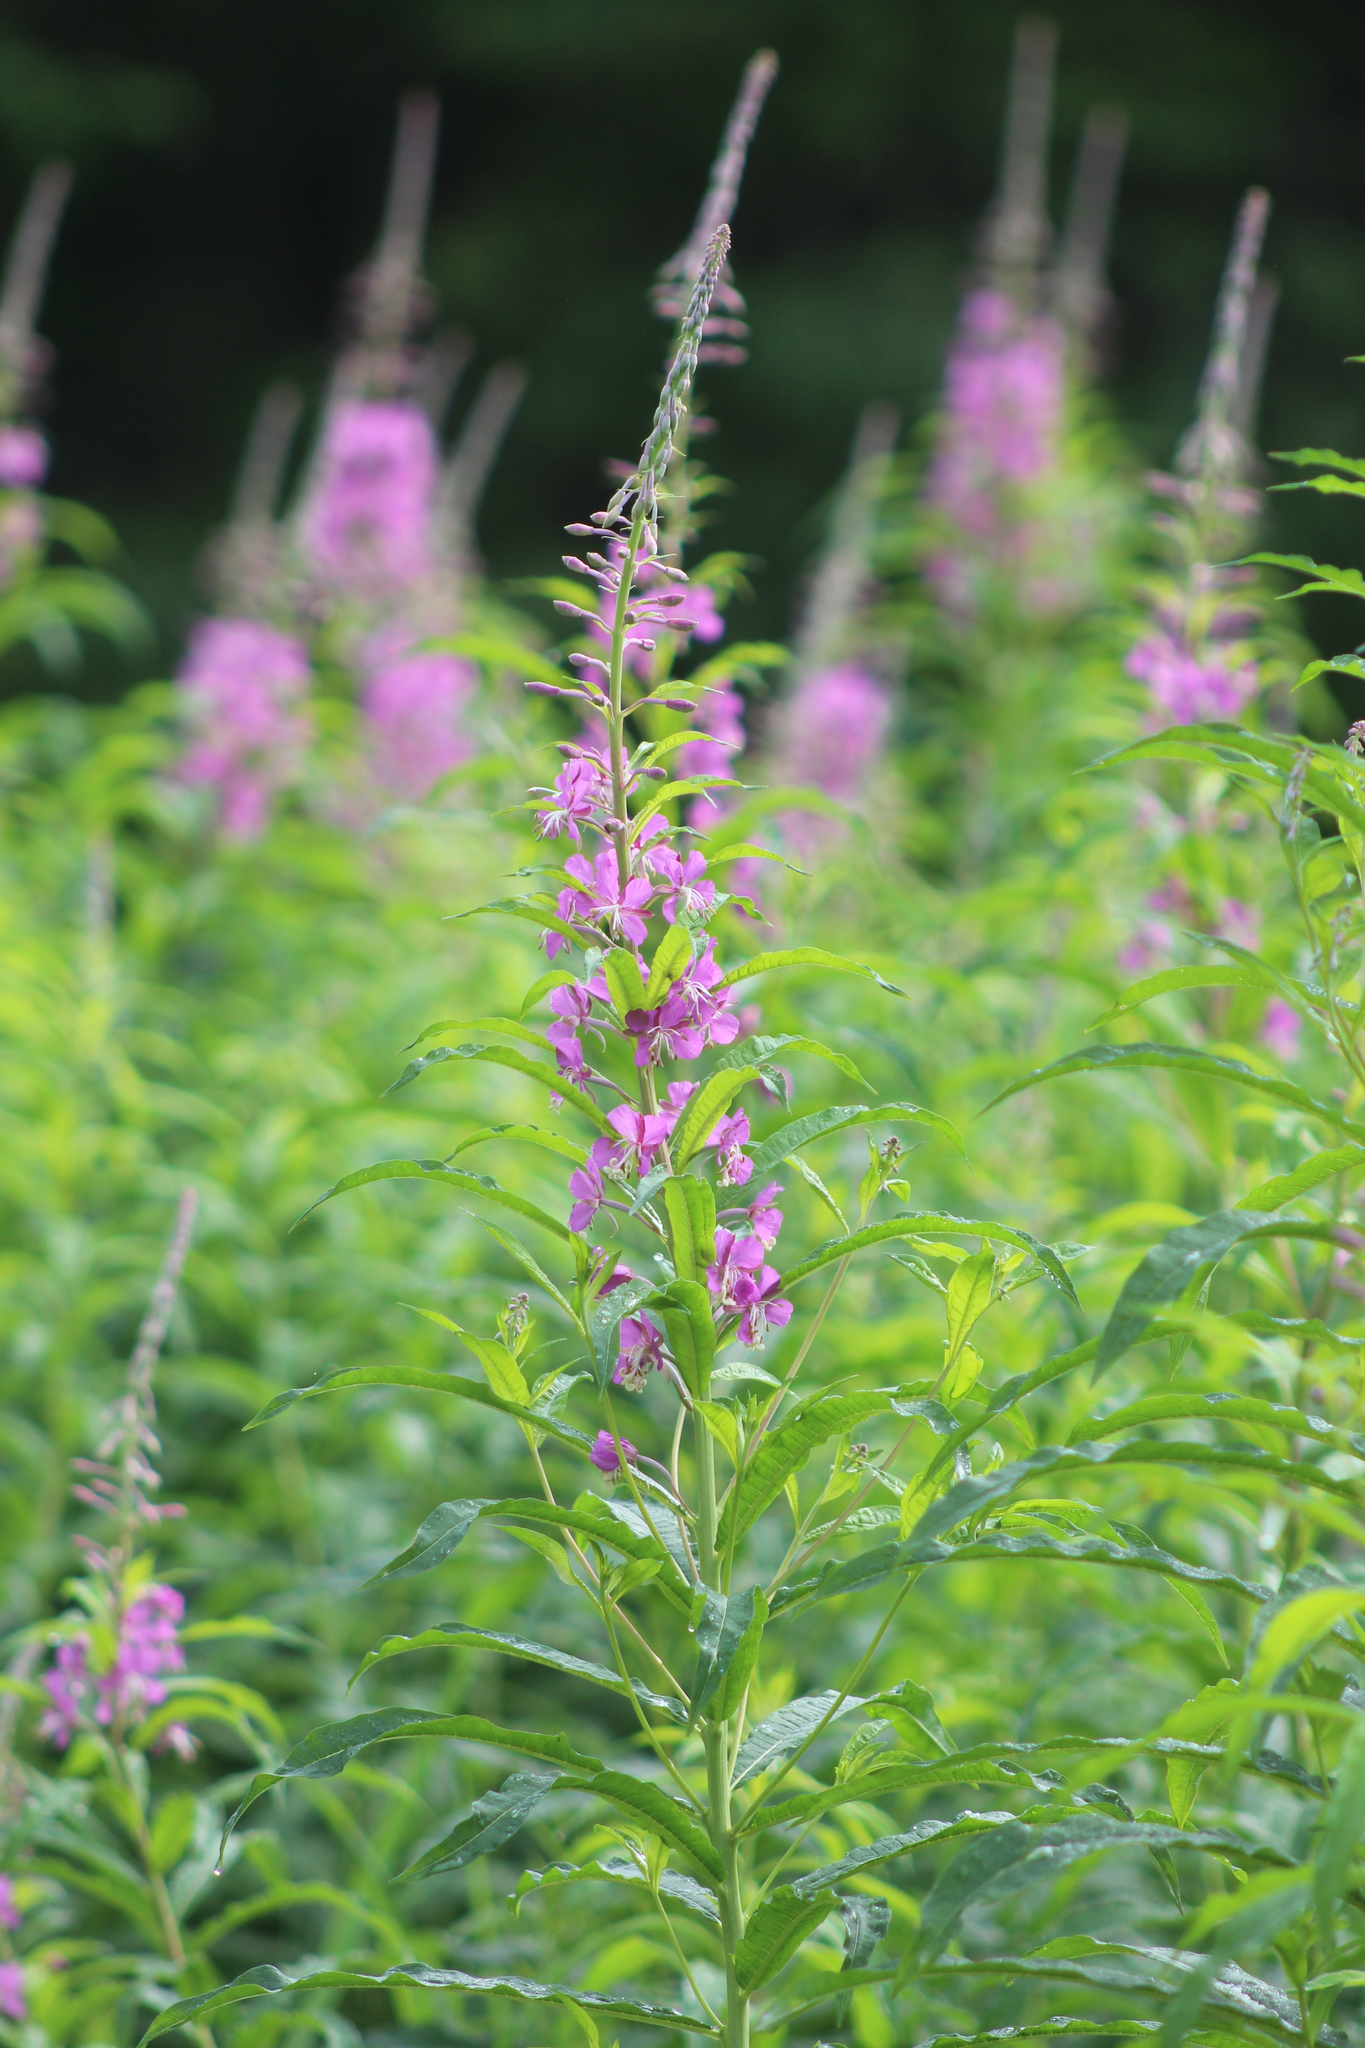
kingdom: Plantae
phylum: Tracheophyta
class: Magnoliopsida
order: Myrtales
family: Onagraceae
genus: Chamaenerion
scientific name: Chamaenerion angustifolium
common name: Fireweed
